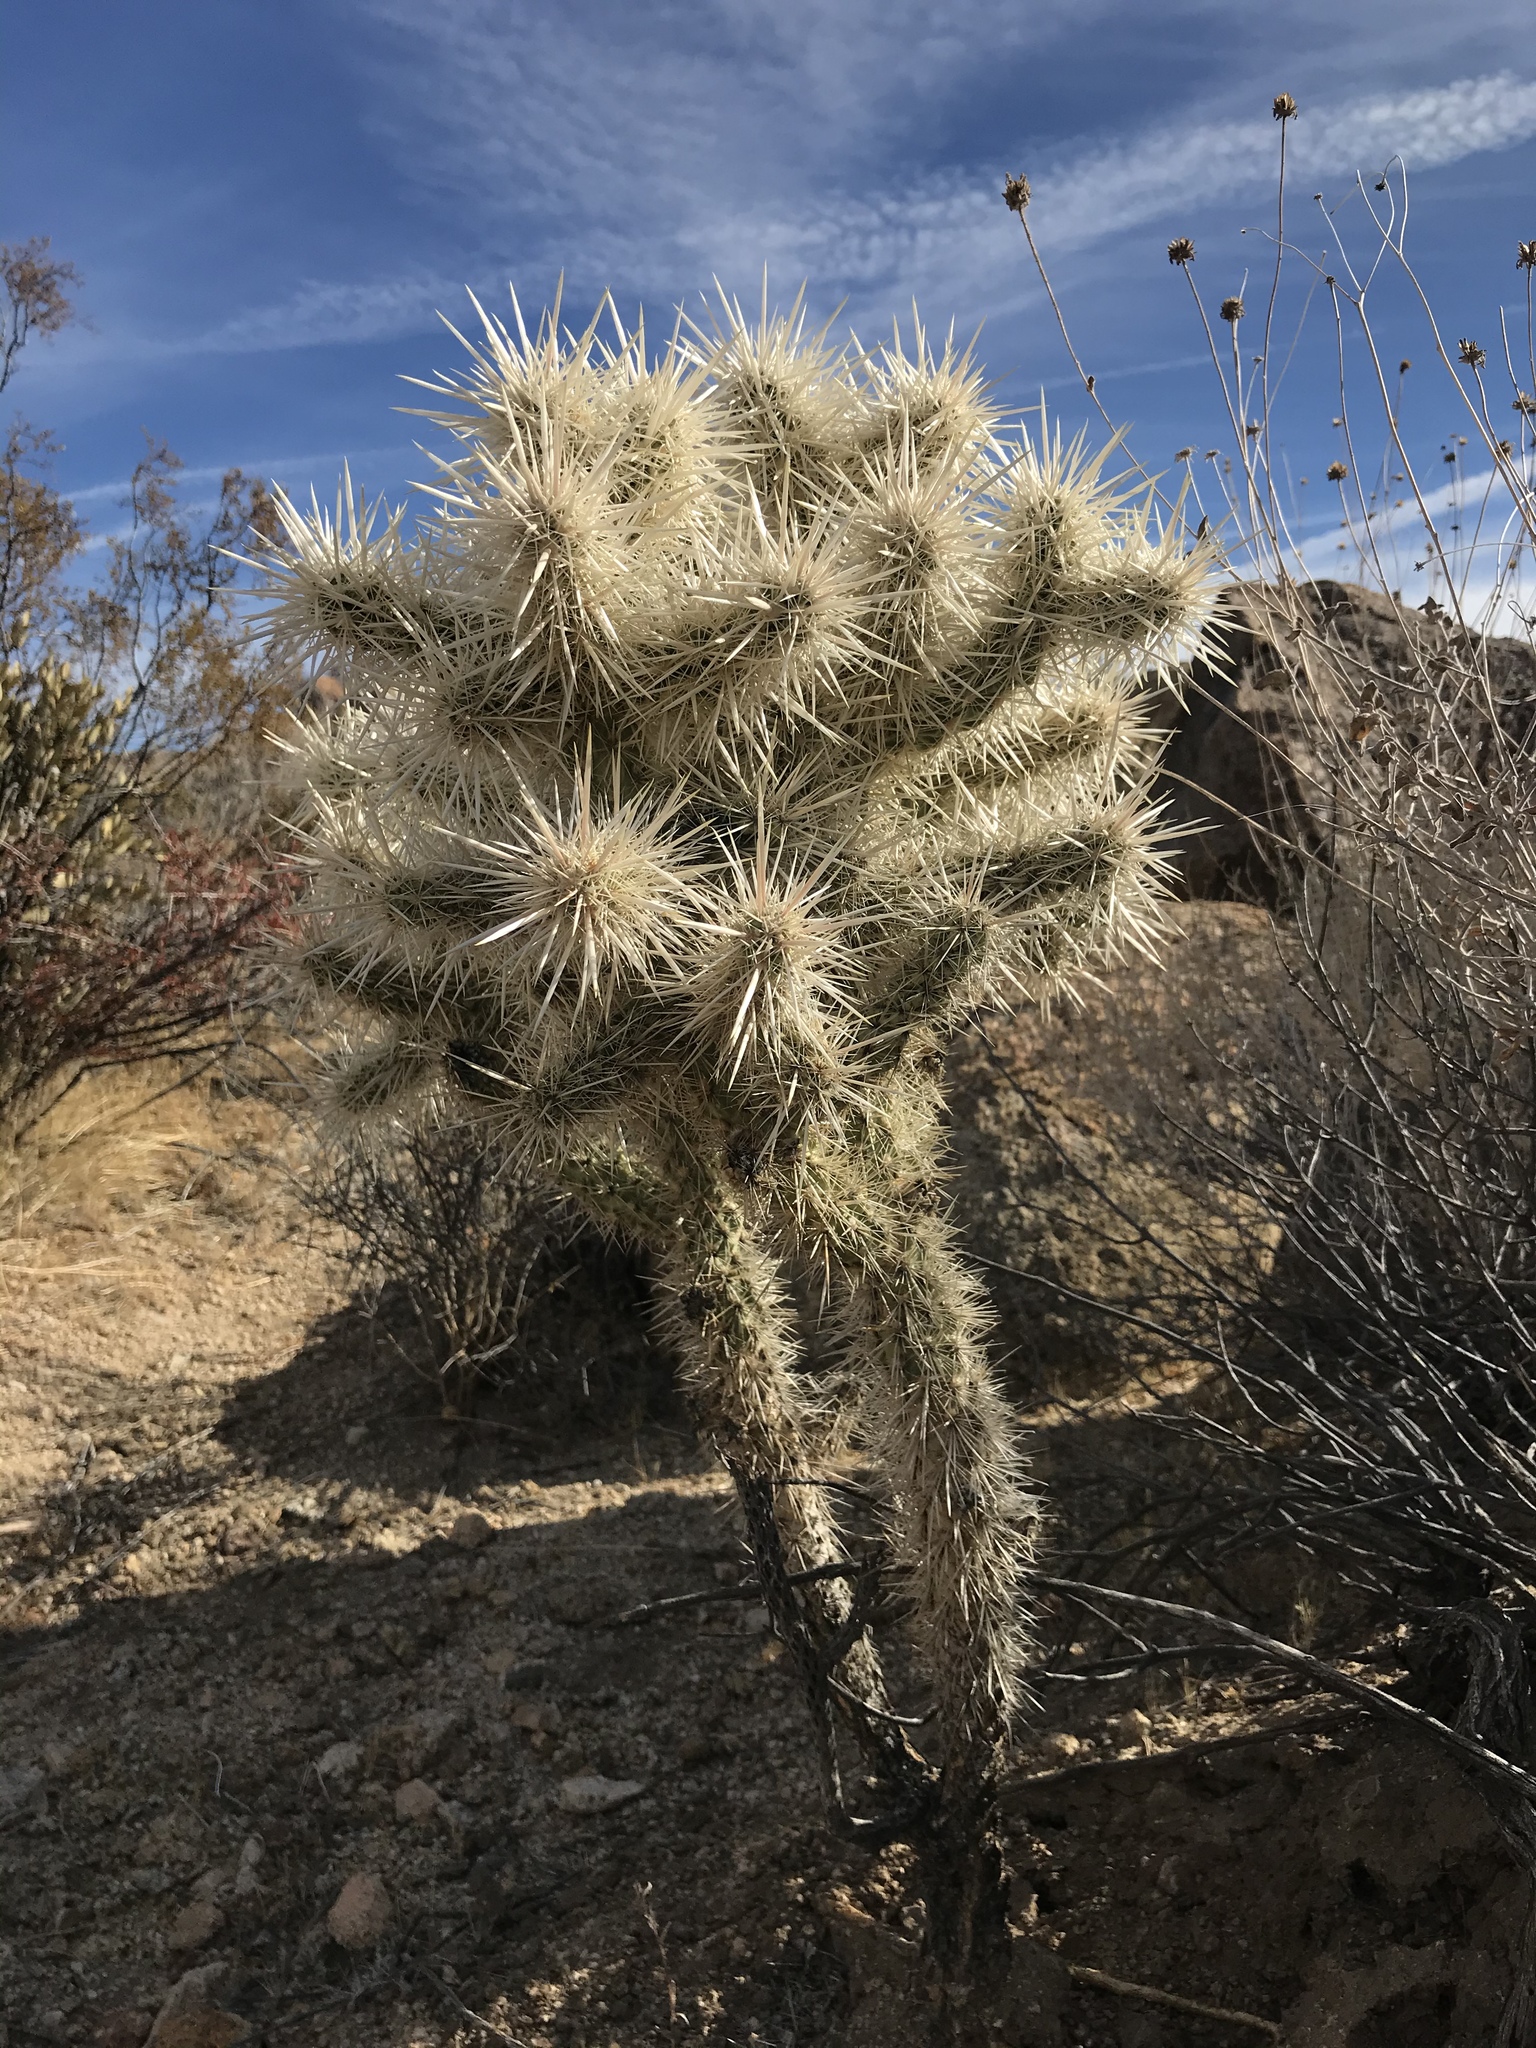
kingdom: Plantae
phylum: Tracheophyta
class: Magnoliopsida
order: Caryophyllales
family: Cactaceae
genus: Cylindropuntia
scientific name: Cylindropuntia echinocarpa
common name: Ground cholla
